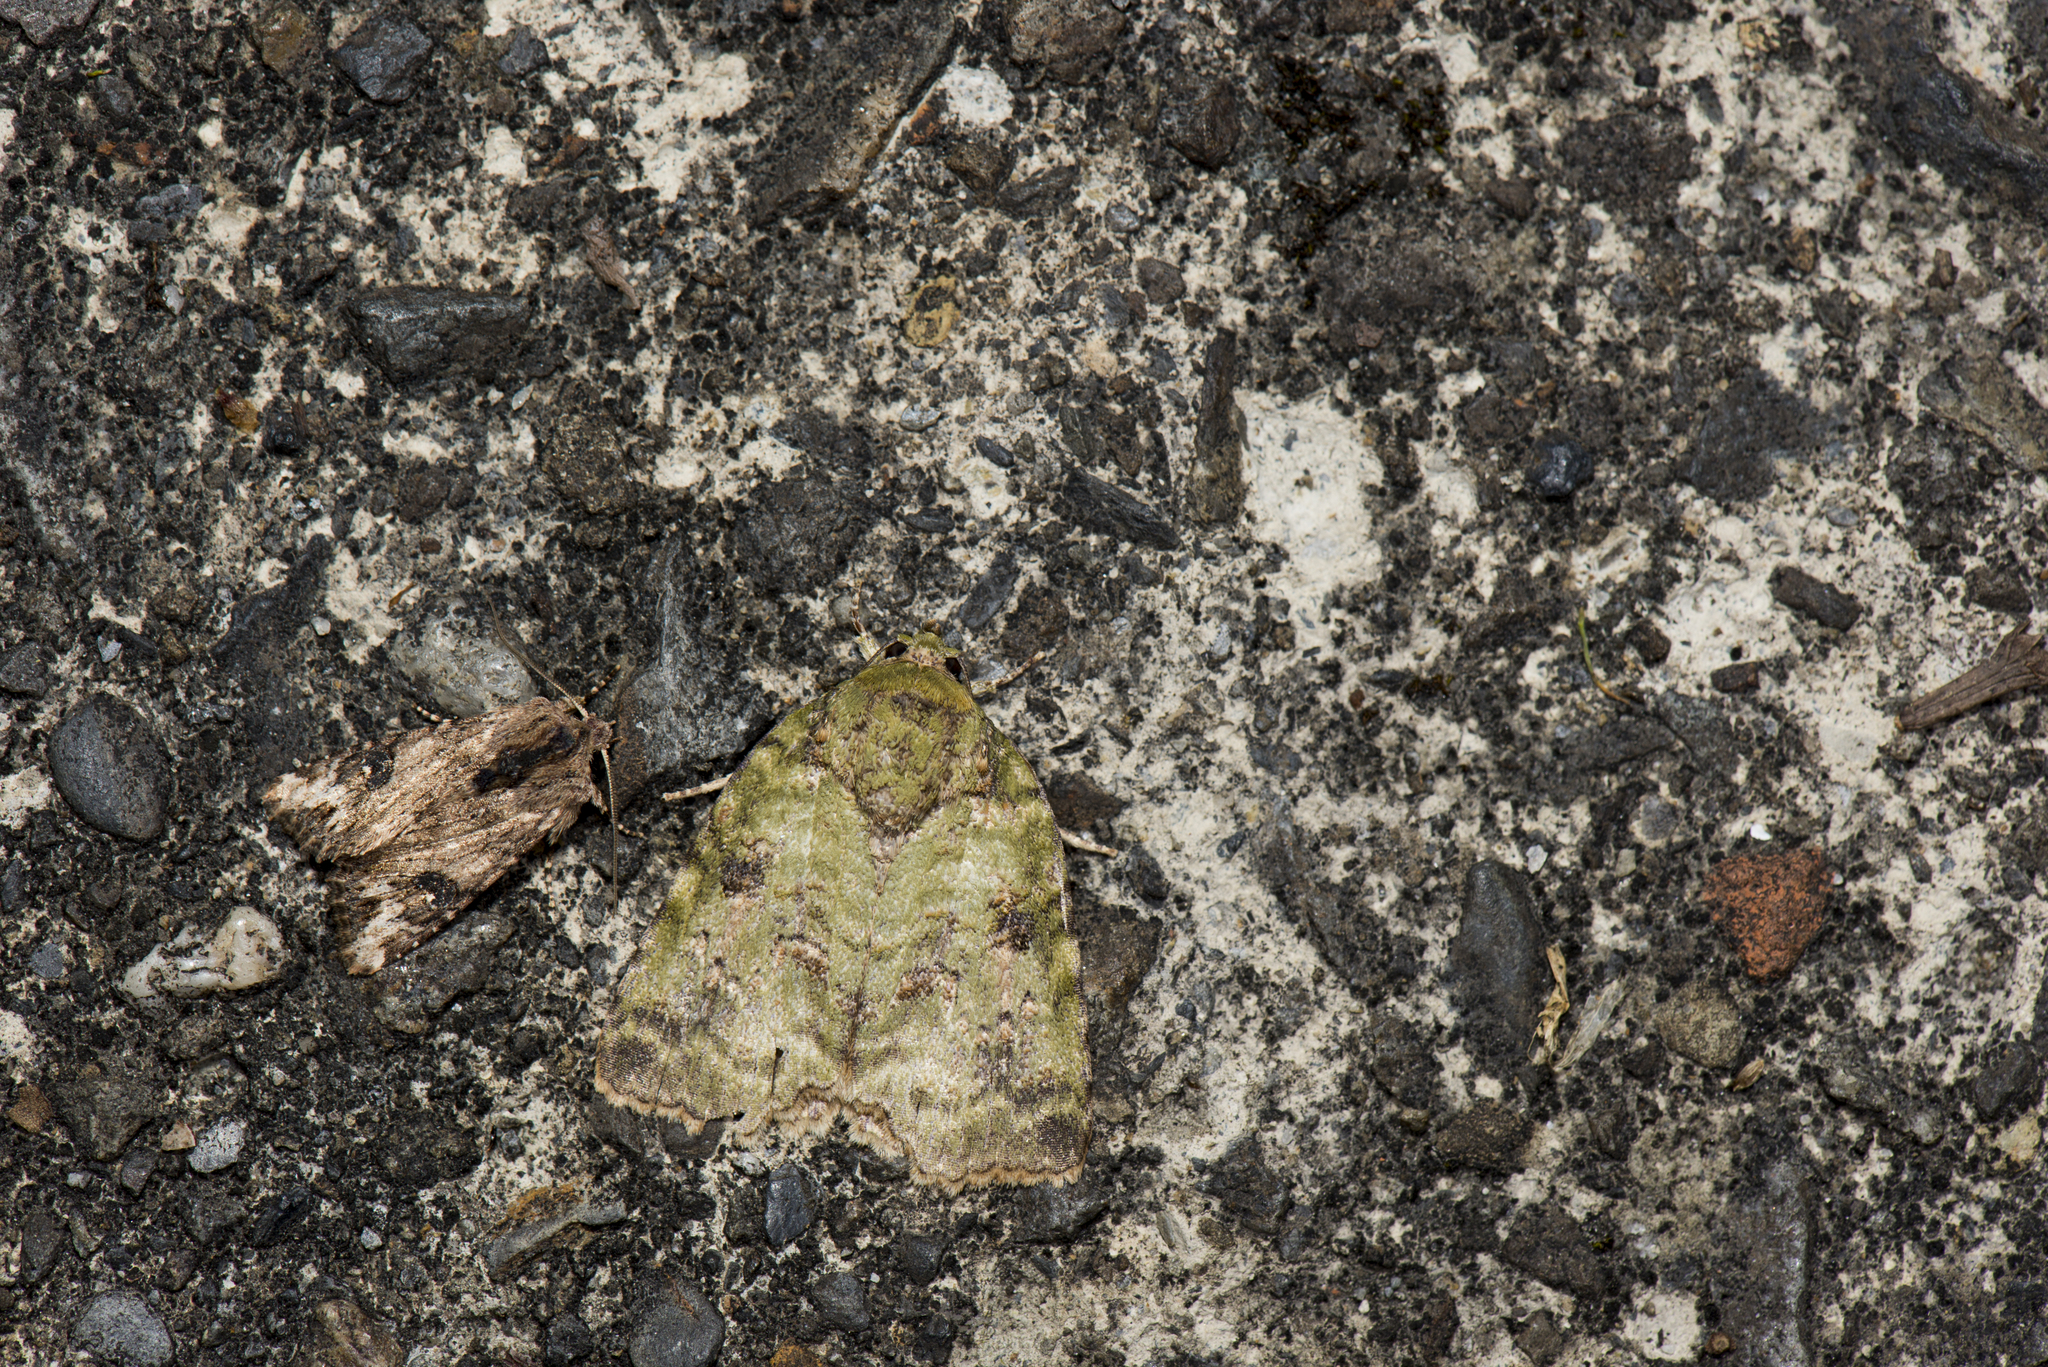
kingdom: Animalia
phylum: Arthropoda
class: Insecta
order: Lepidoptera
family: Nolidae
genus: Blenina
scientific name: Blenina angulipennis
